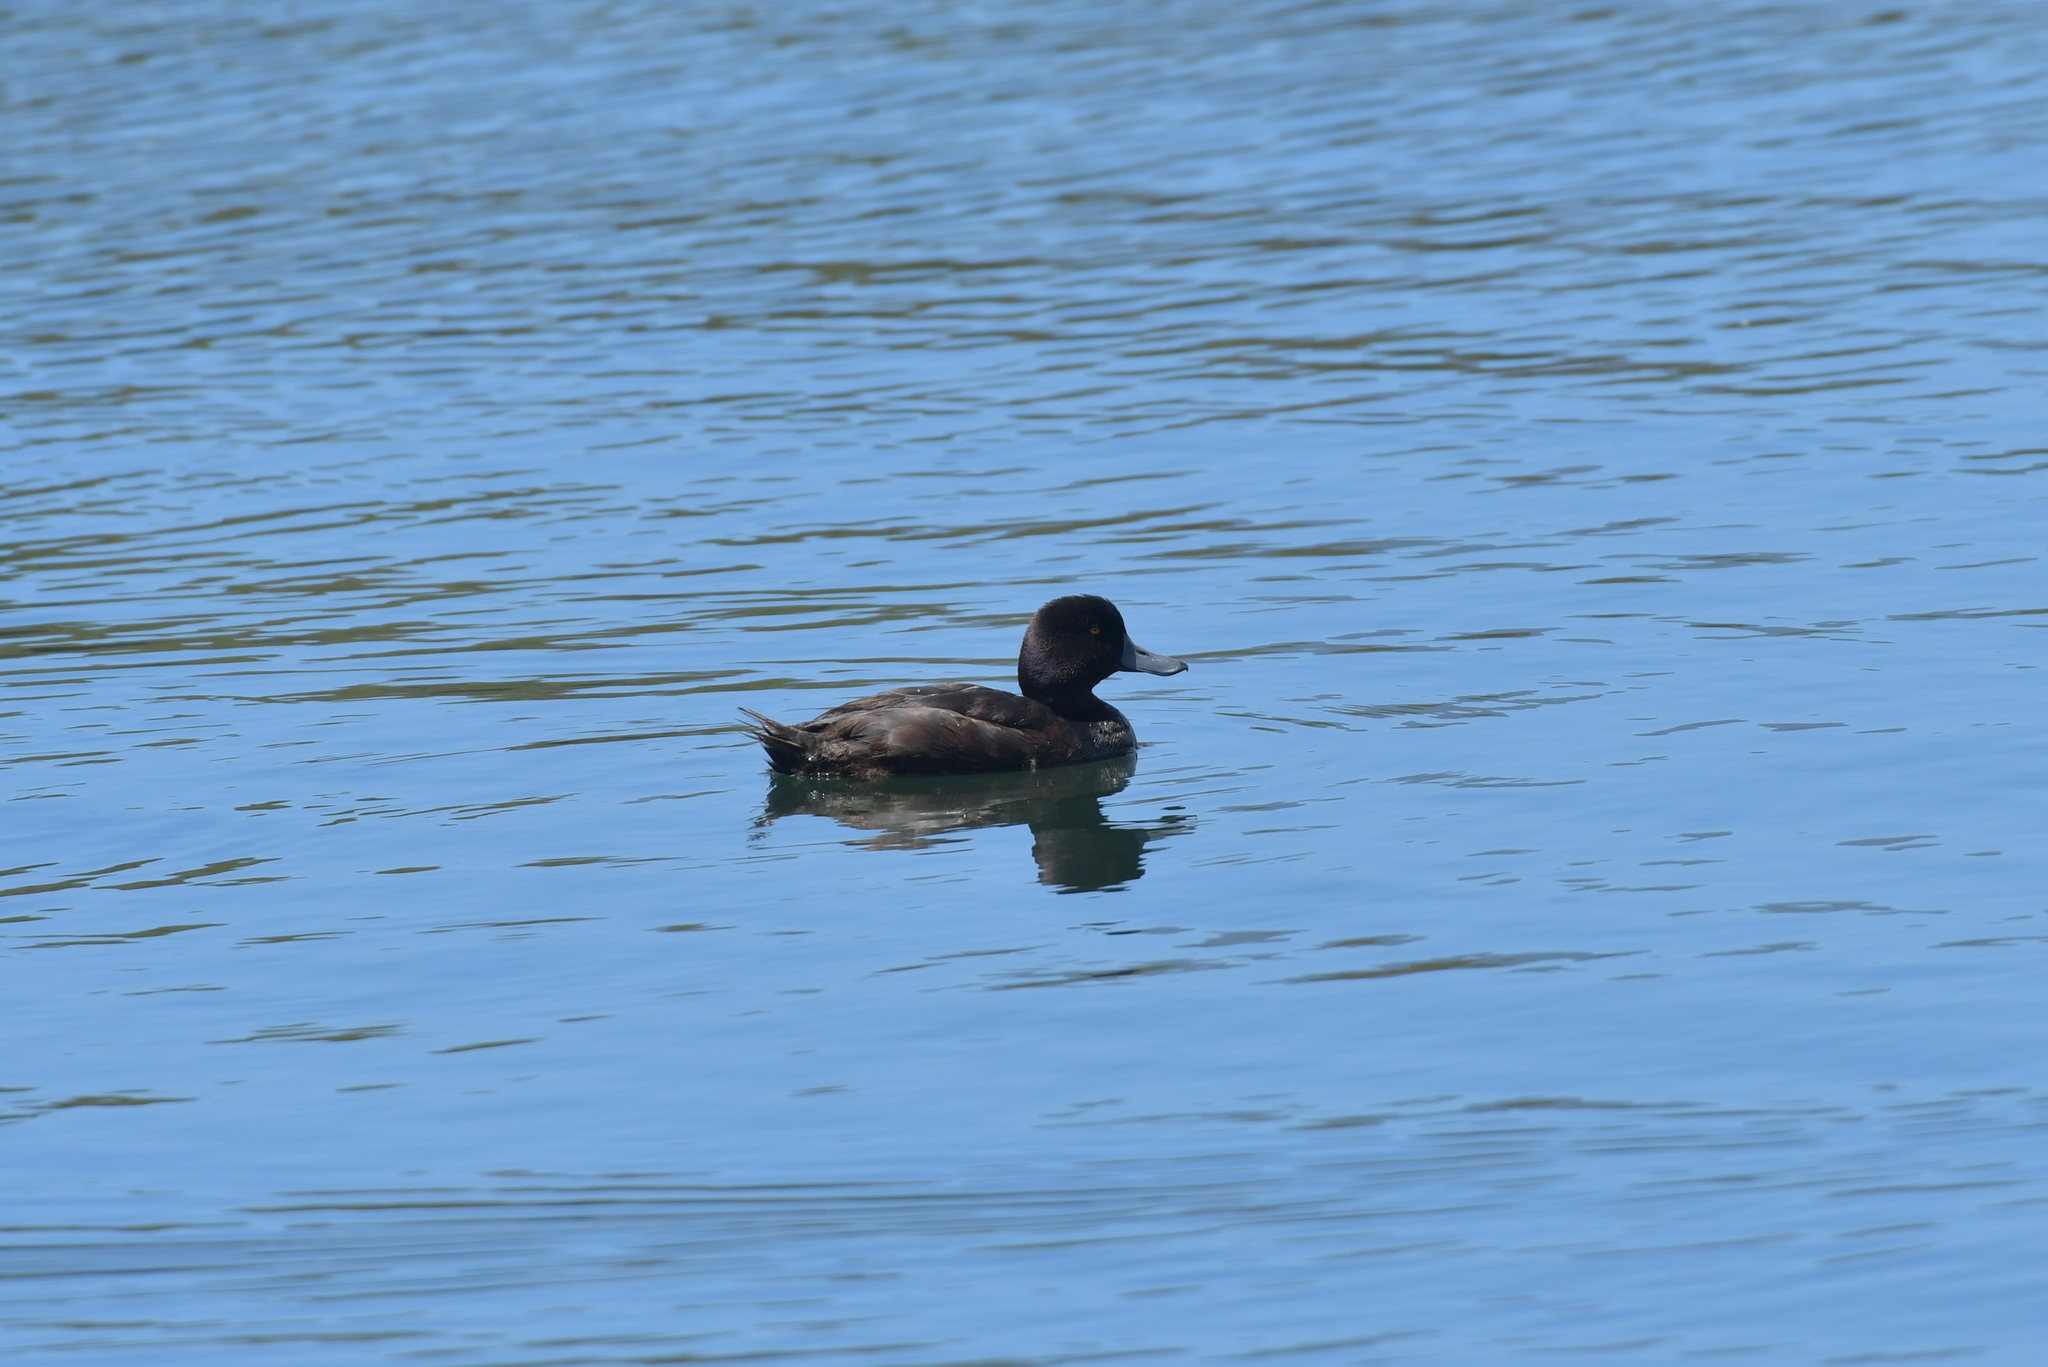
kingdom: Animalia
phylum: Chordata
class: Aves
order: Anseriformes
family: Anatidae
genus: Aythya
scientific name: Aythya novaeseelandiae
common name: New zealand scaup
